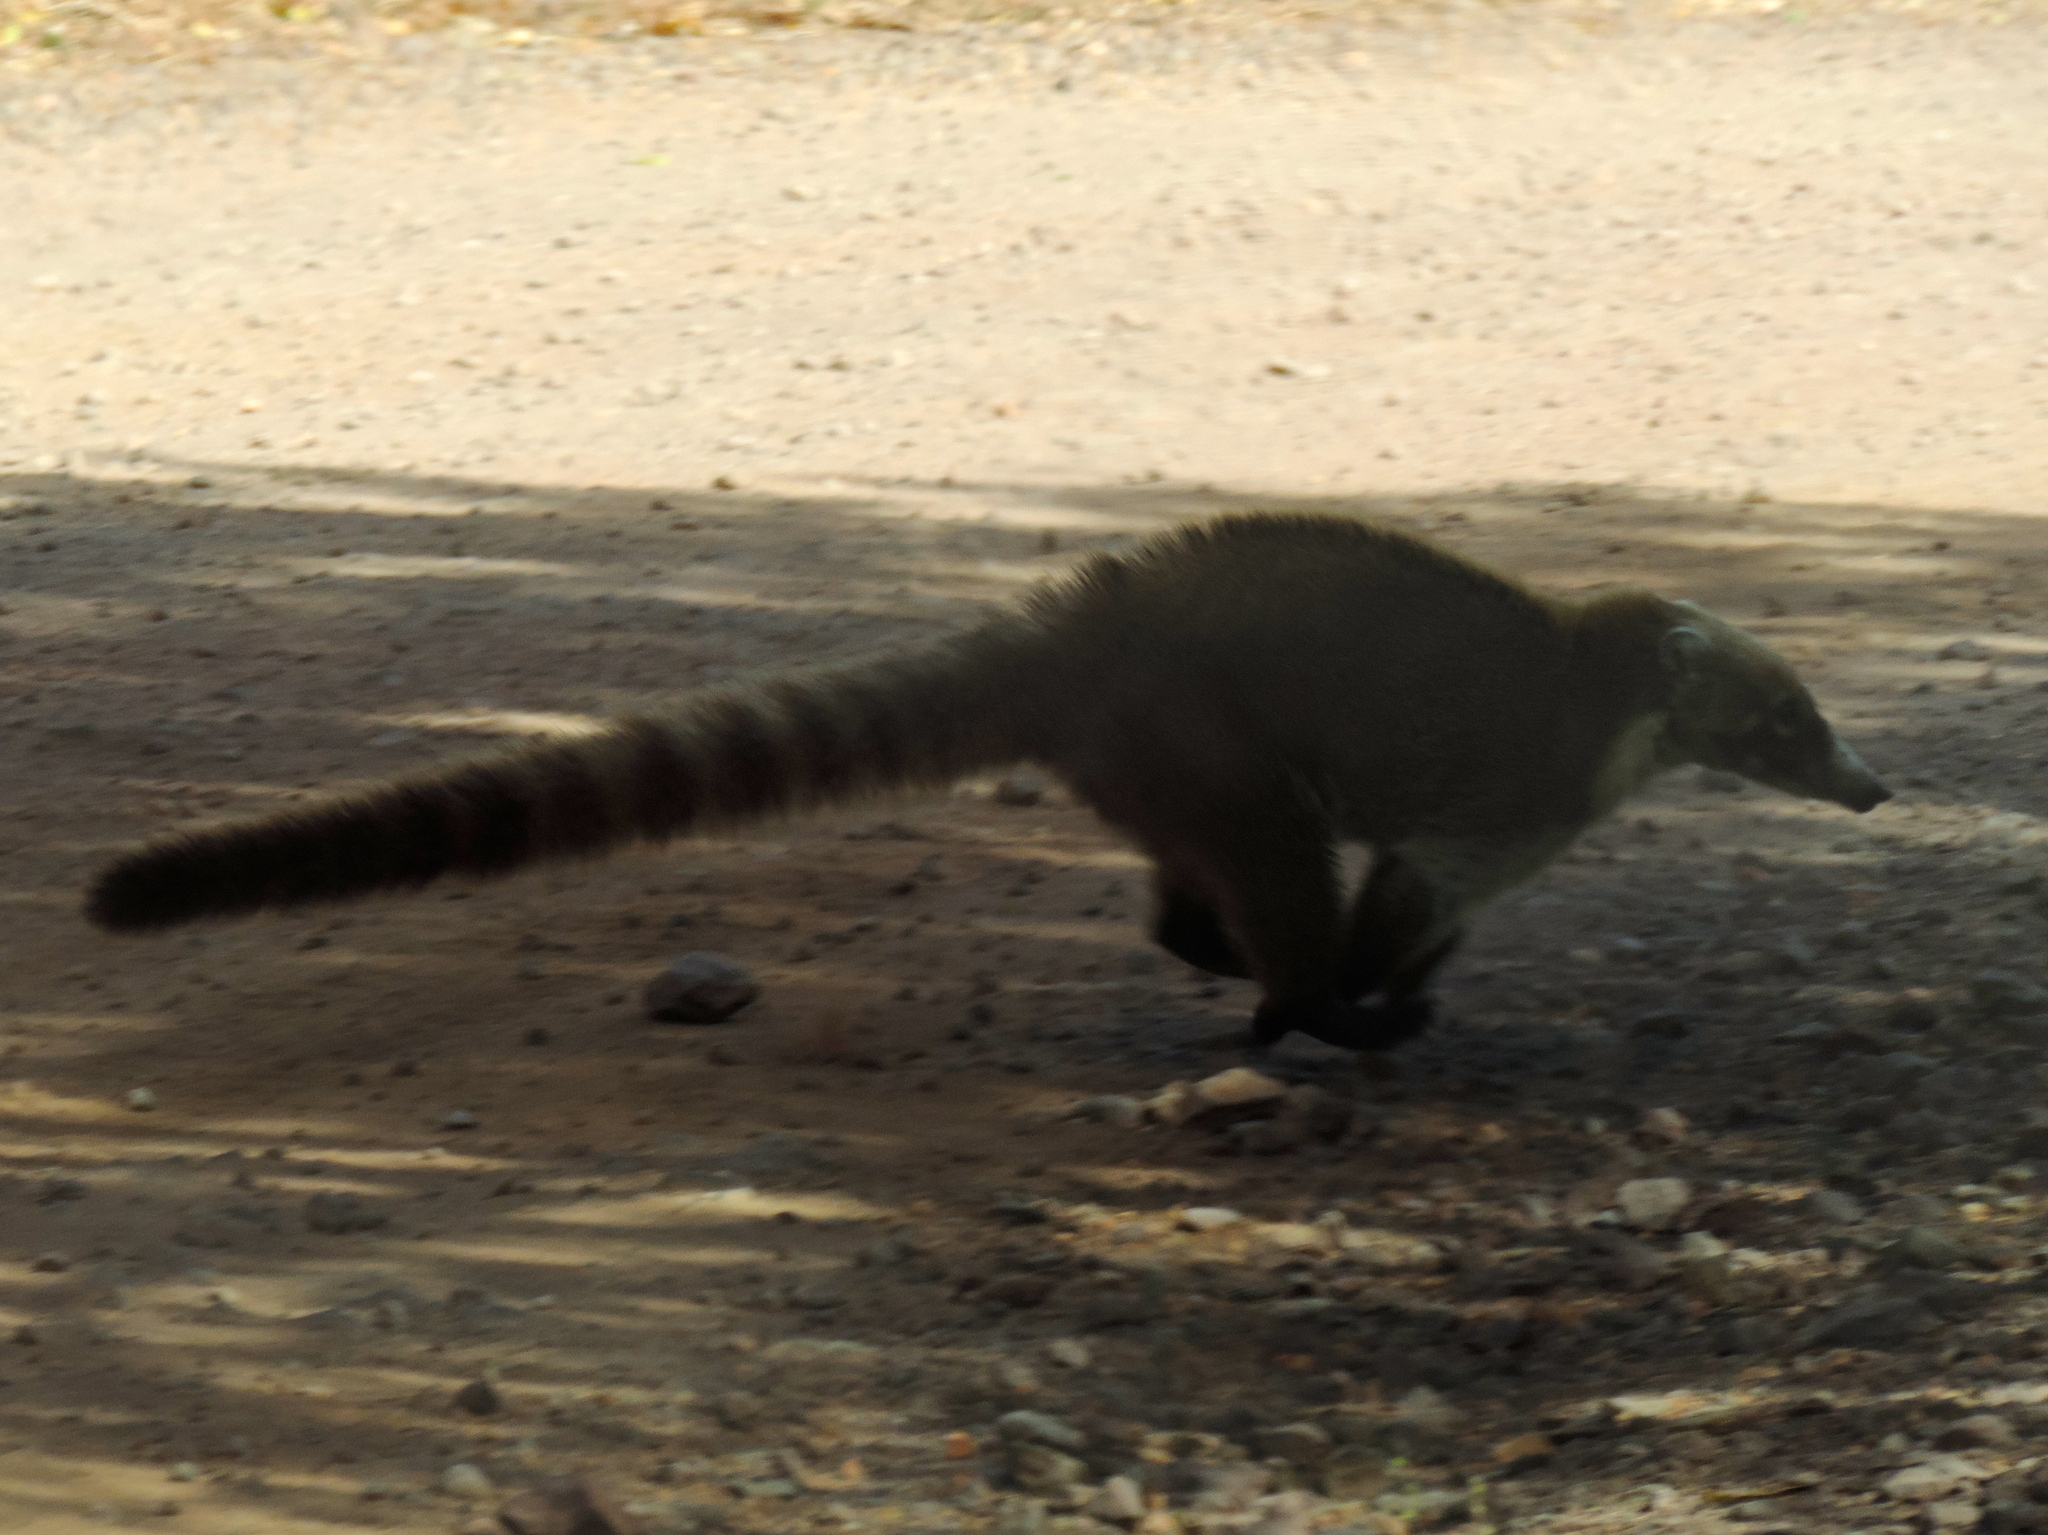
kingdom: Animalia
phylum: Chordata
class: Mammalia
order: Carnivora
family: Procyonidae
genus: Nasua
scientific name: Nasua narica
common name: White-nosed coati
